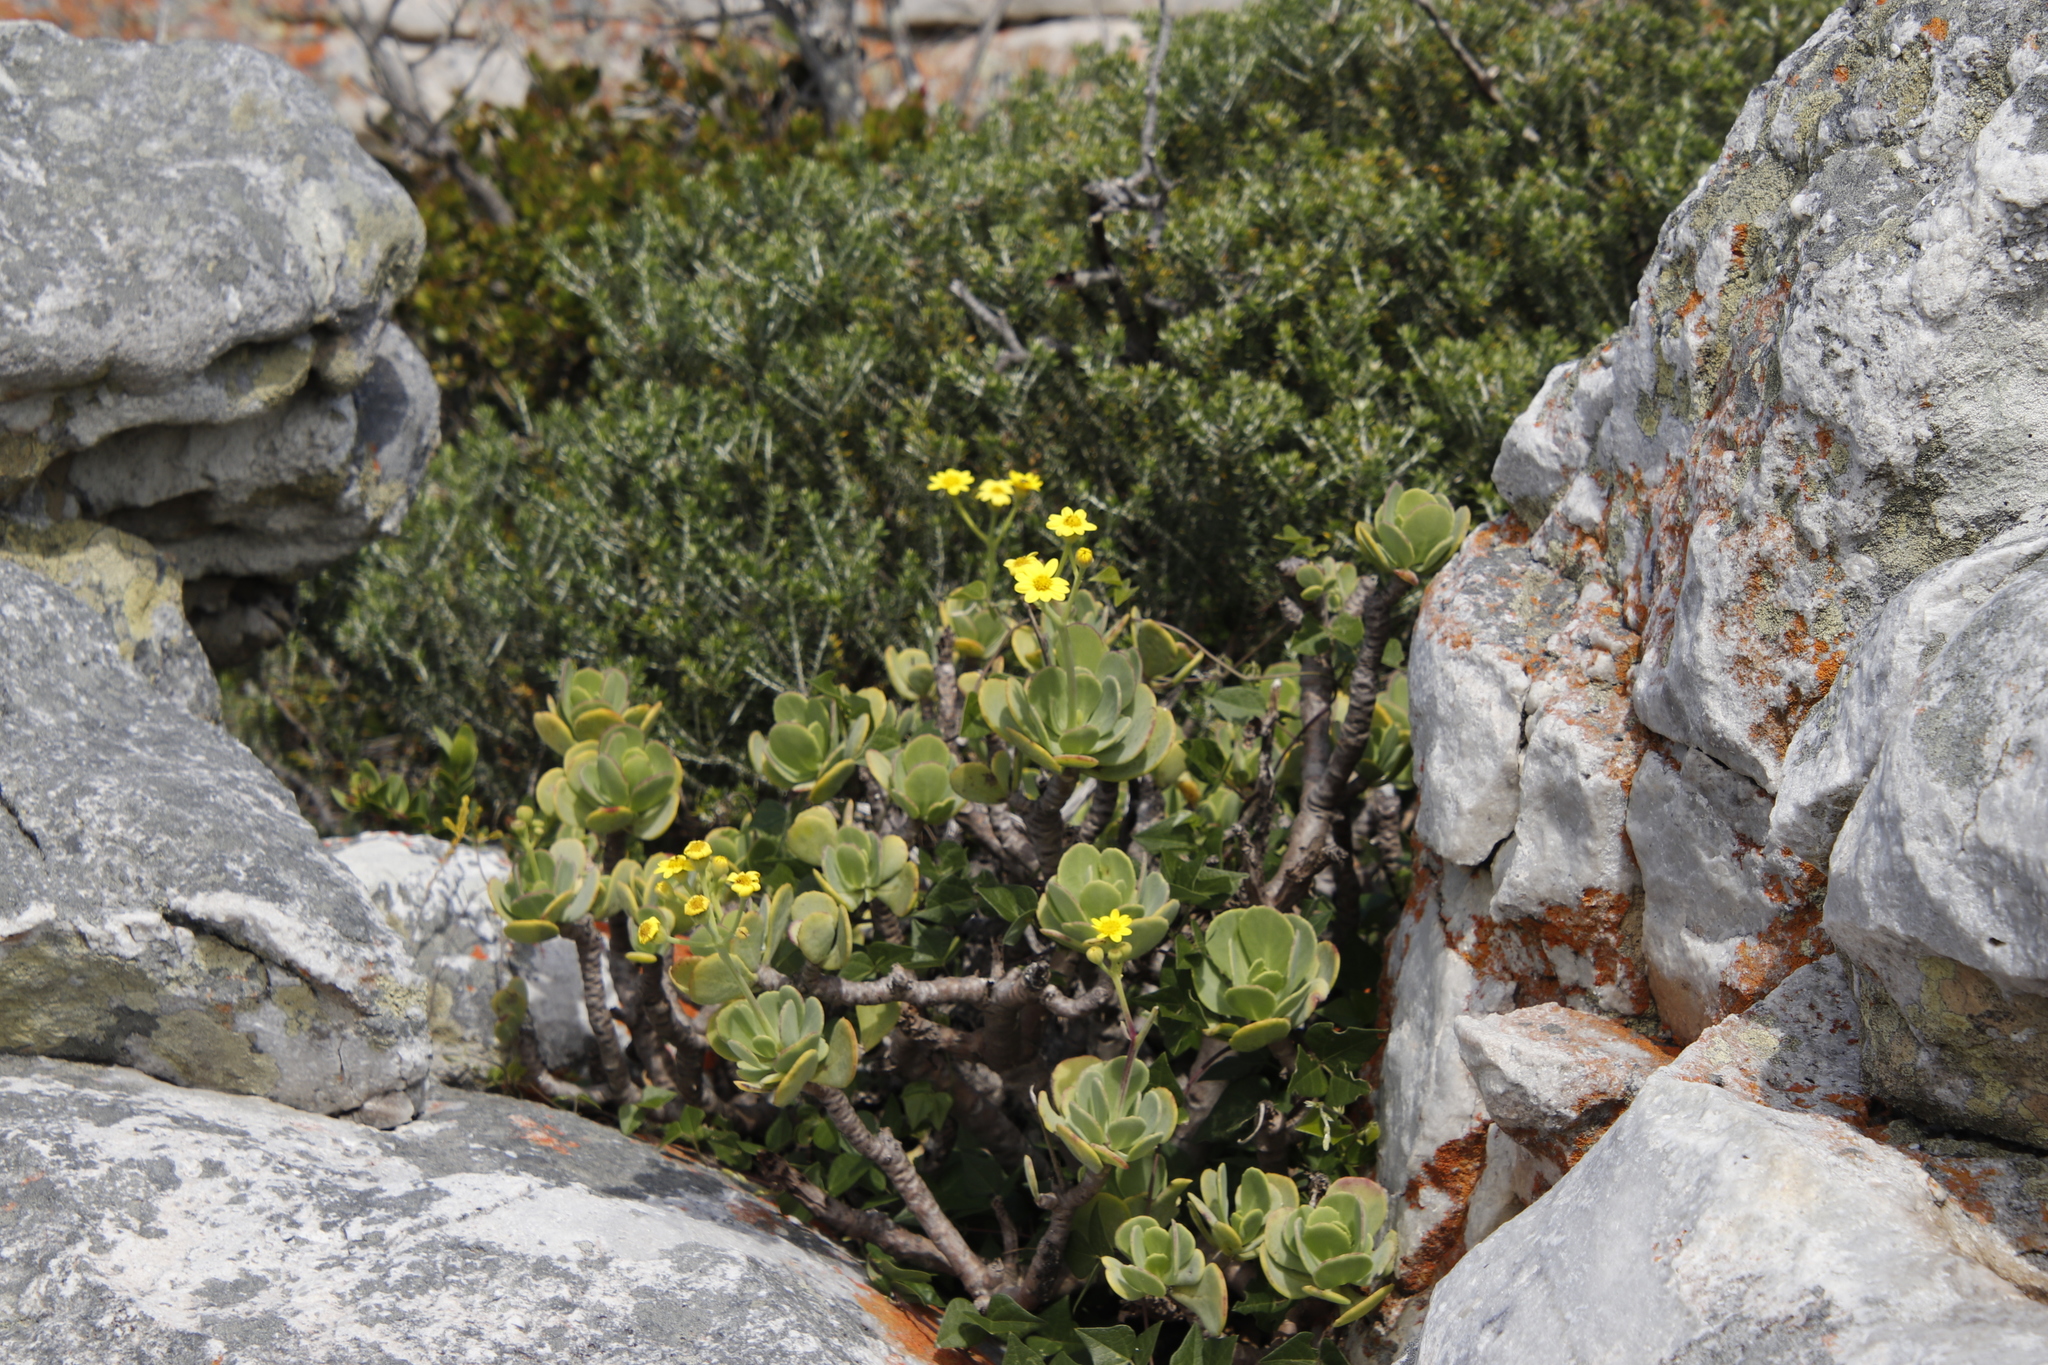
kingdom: Plantae
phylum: Tracheophyta
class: Magnoliopsida
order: Asterales
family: Asteraceae
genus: Othonna
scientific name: Othonna dentata
